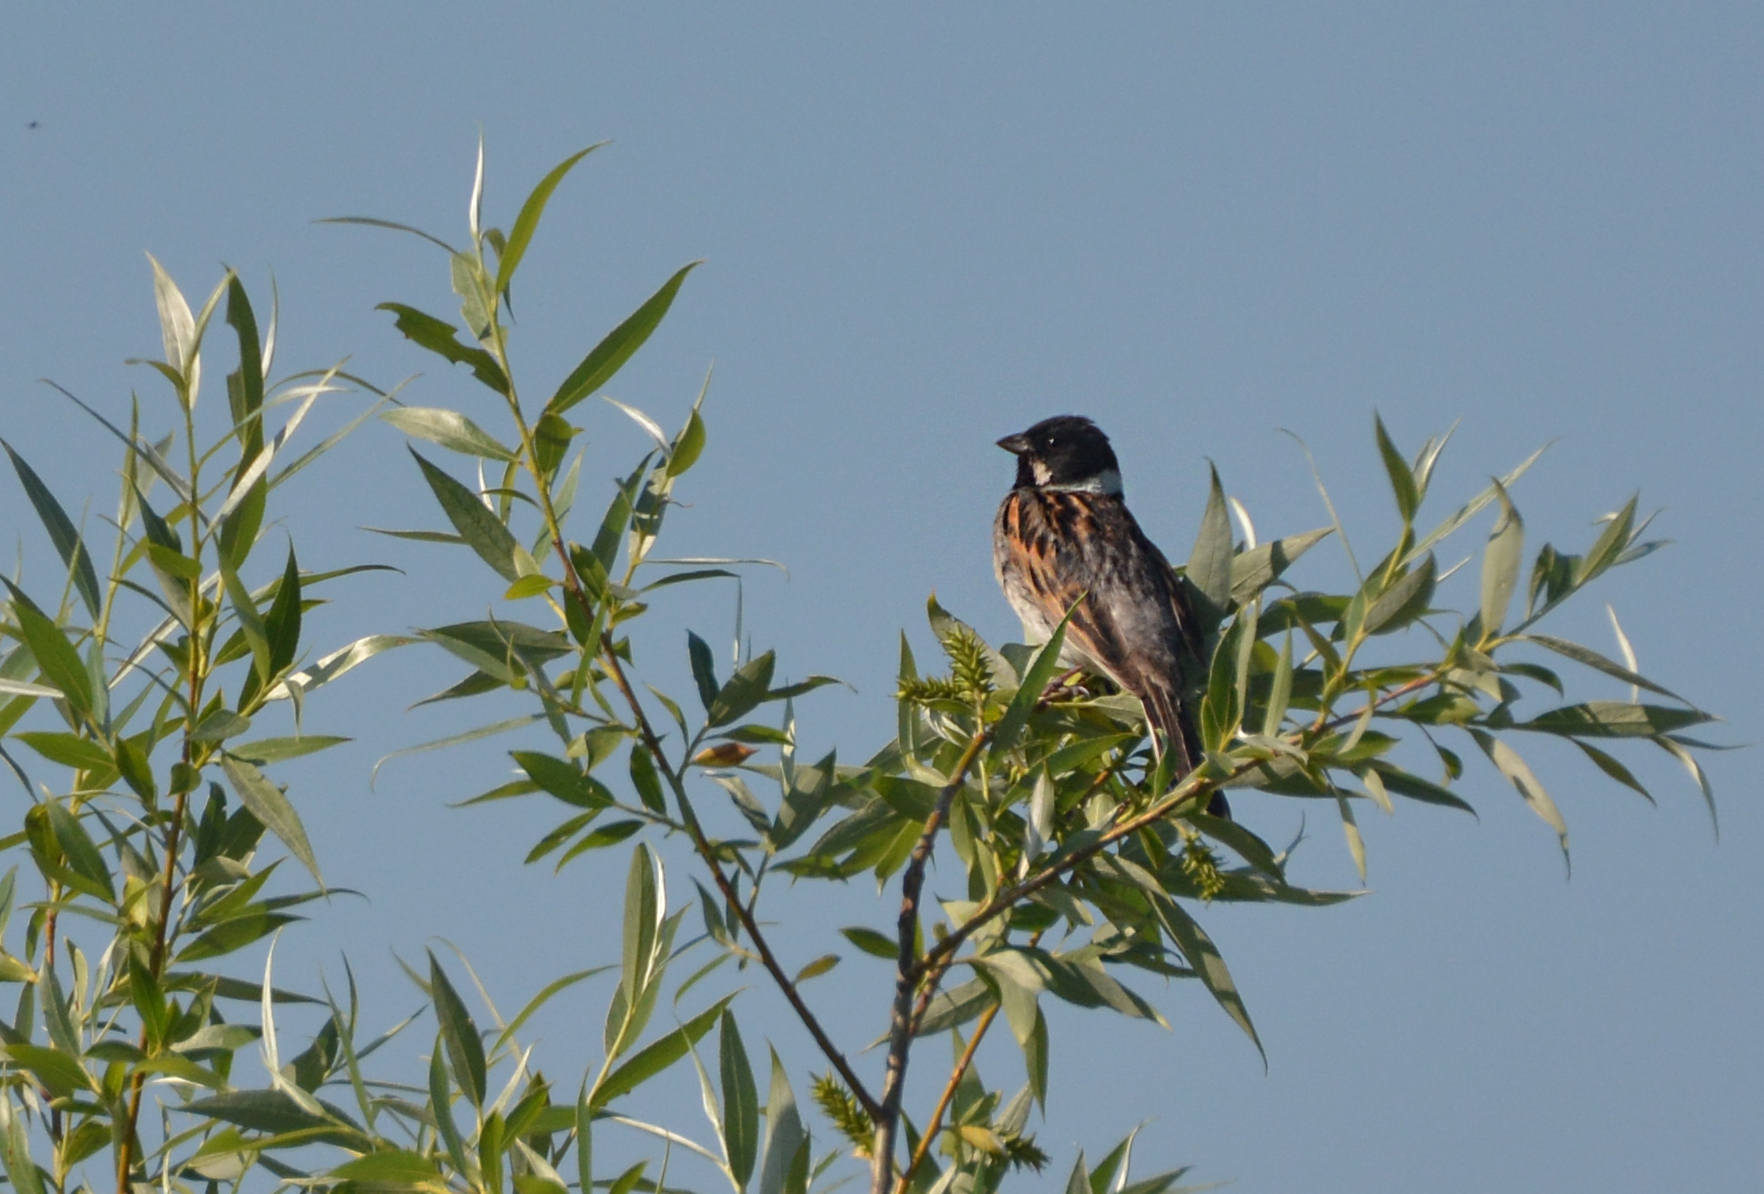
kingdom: Animalia
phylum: Chordata
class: Aves
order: Passeriformes
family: Emberizidae
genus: Emberiza
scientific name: Emberiza schoeniclus
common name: Reed bunting
